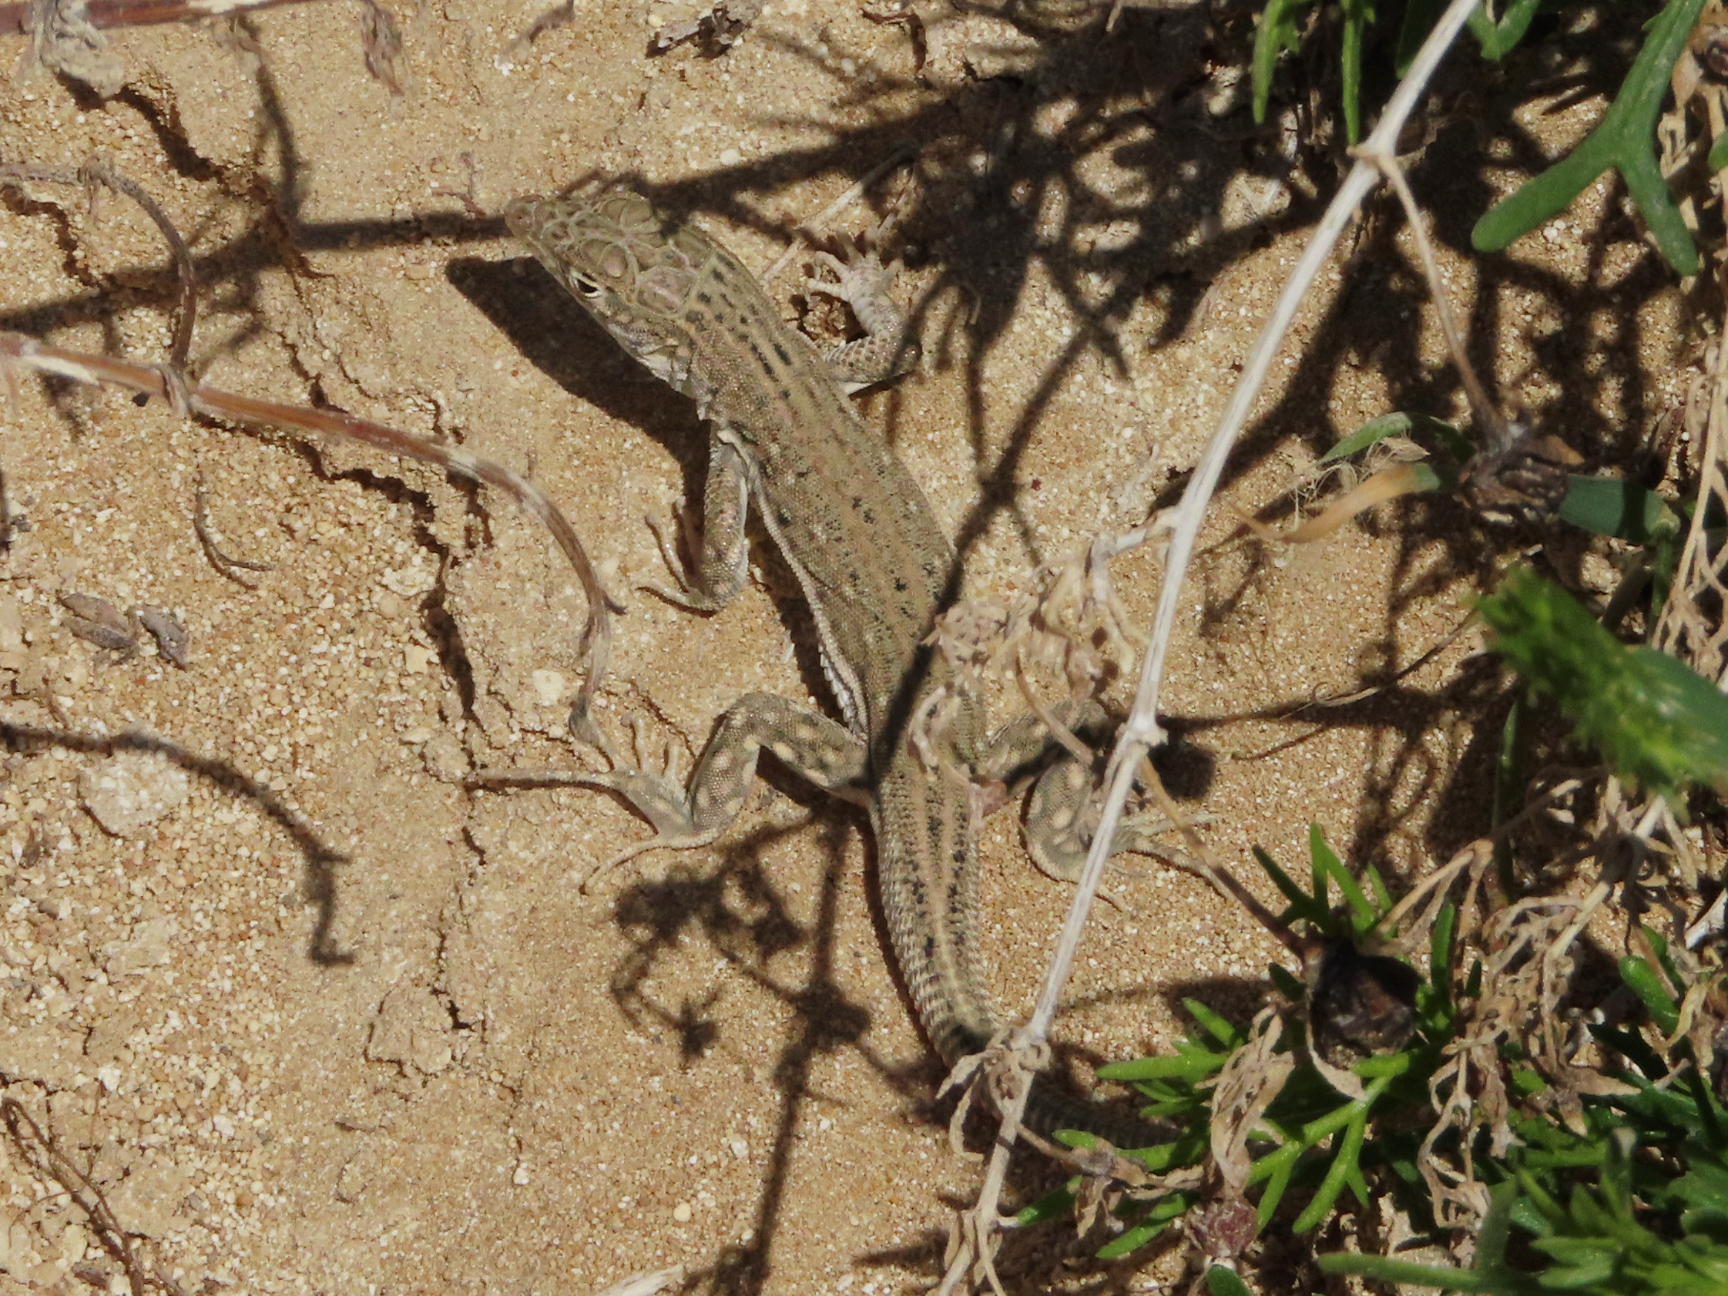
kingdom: Animalia
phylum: Chordata
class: Squamata
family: Lacertidae
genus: Eremias
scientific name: Eremias velox
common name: Central asian racerunner
